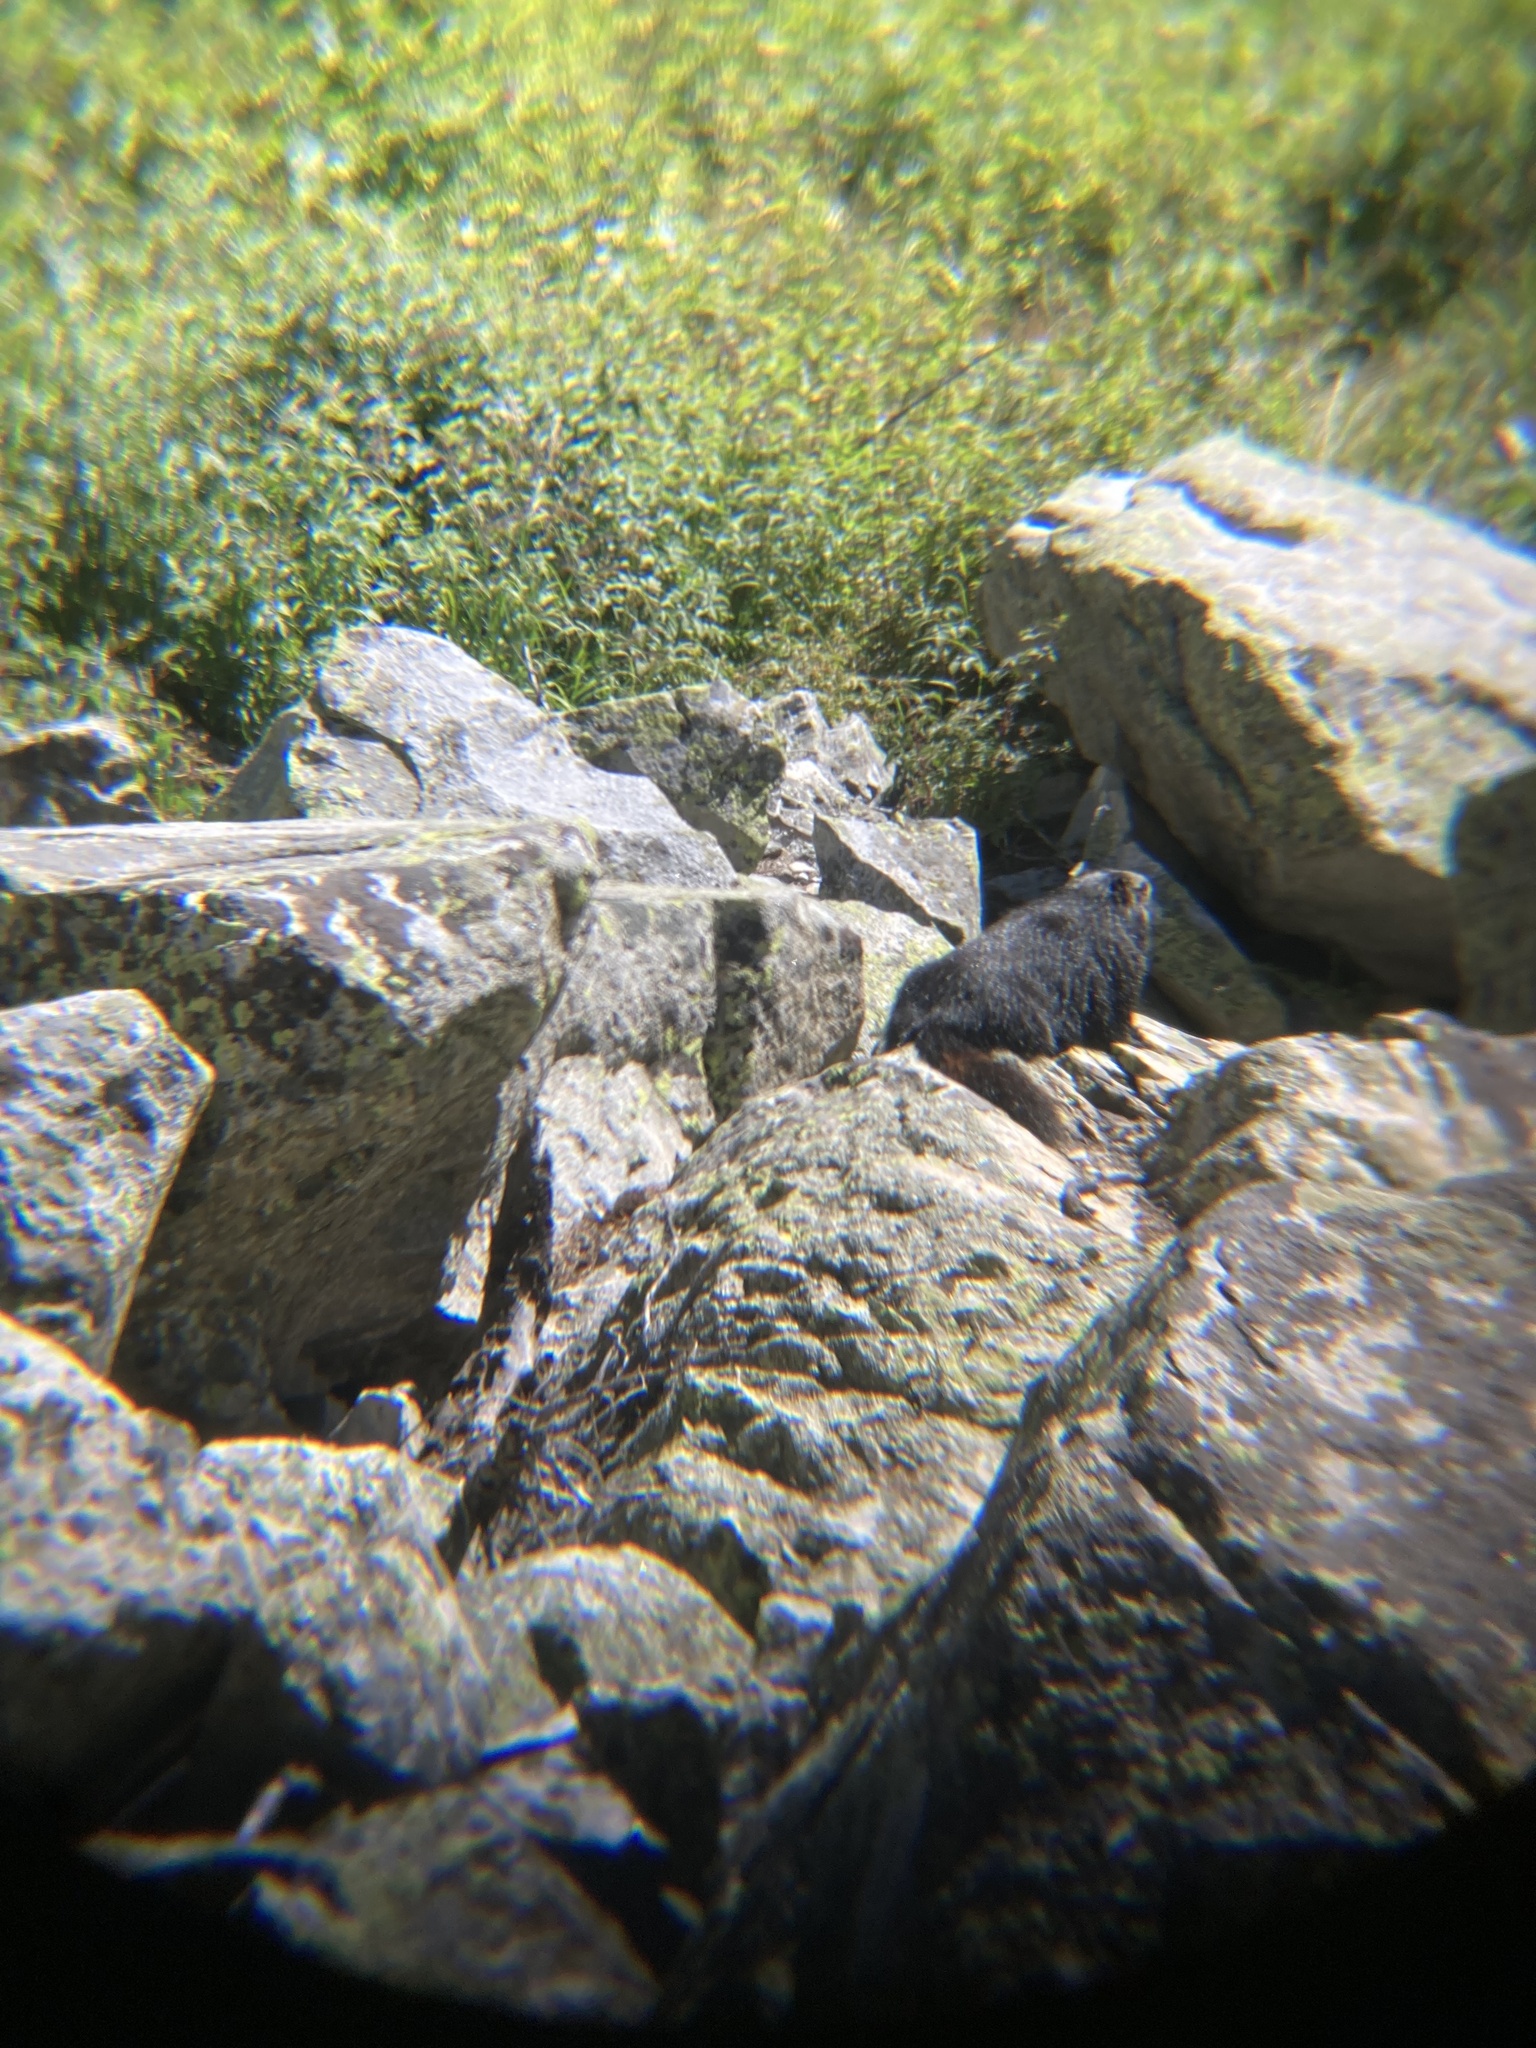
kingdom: Animalia
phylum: Chordata
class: Mammalia
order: Rodentia
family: Sciuridae
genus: Marmota
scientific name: Marmota flaviventris
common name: Yellow-bellied marmot
